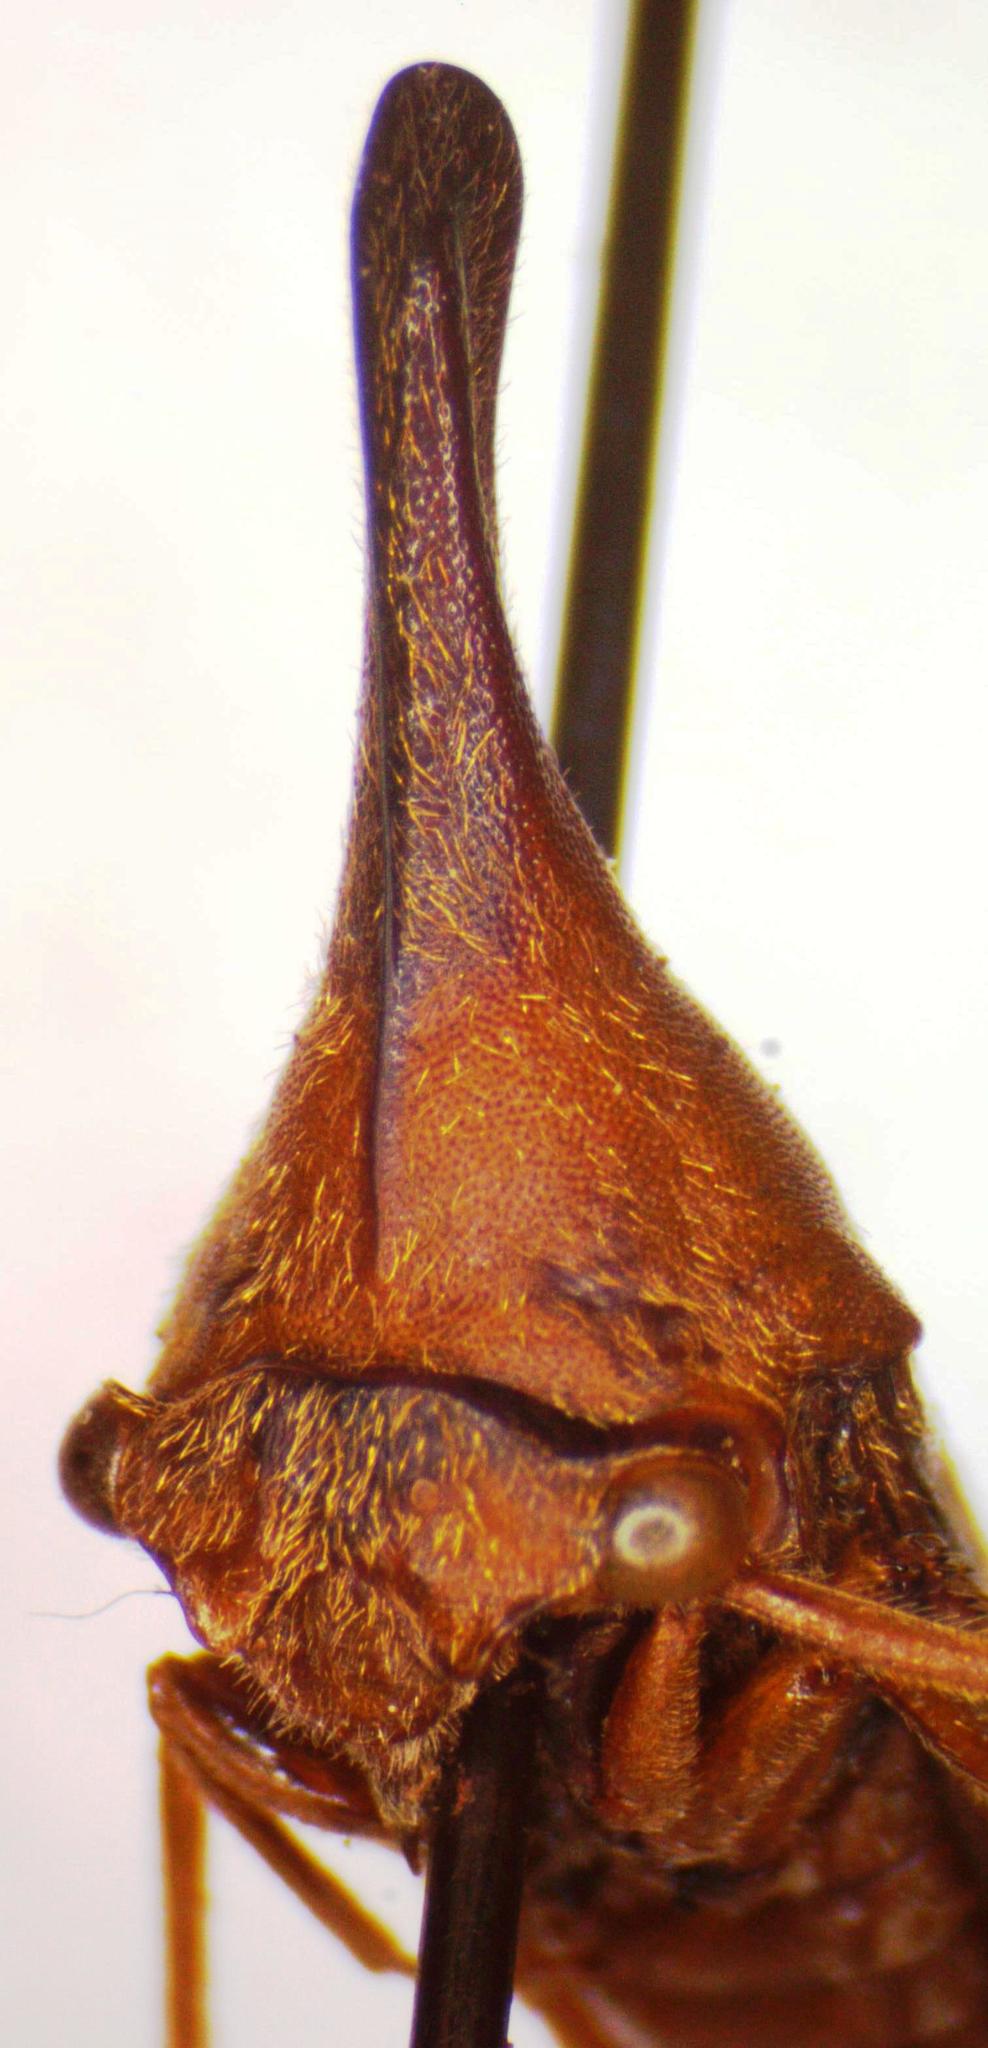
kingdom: Animalia
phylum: Arthropoda
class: Insecta
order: Hemiptera
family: Membracidae
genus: Aconophora
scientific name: Aconophora laminata
